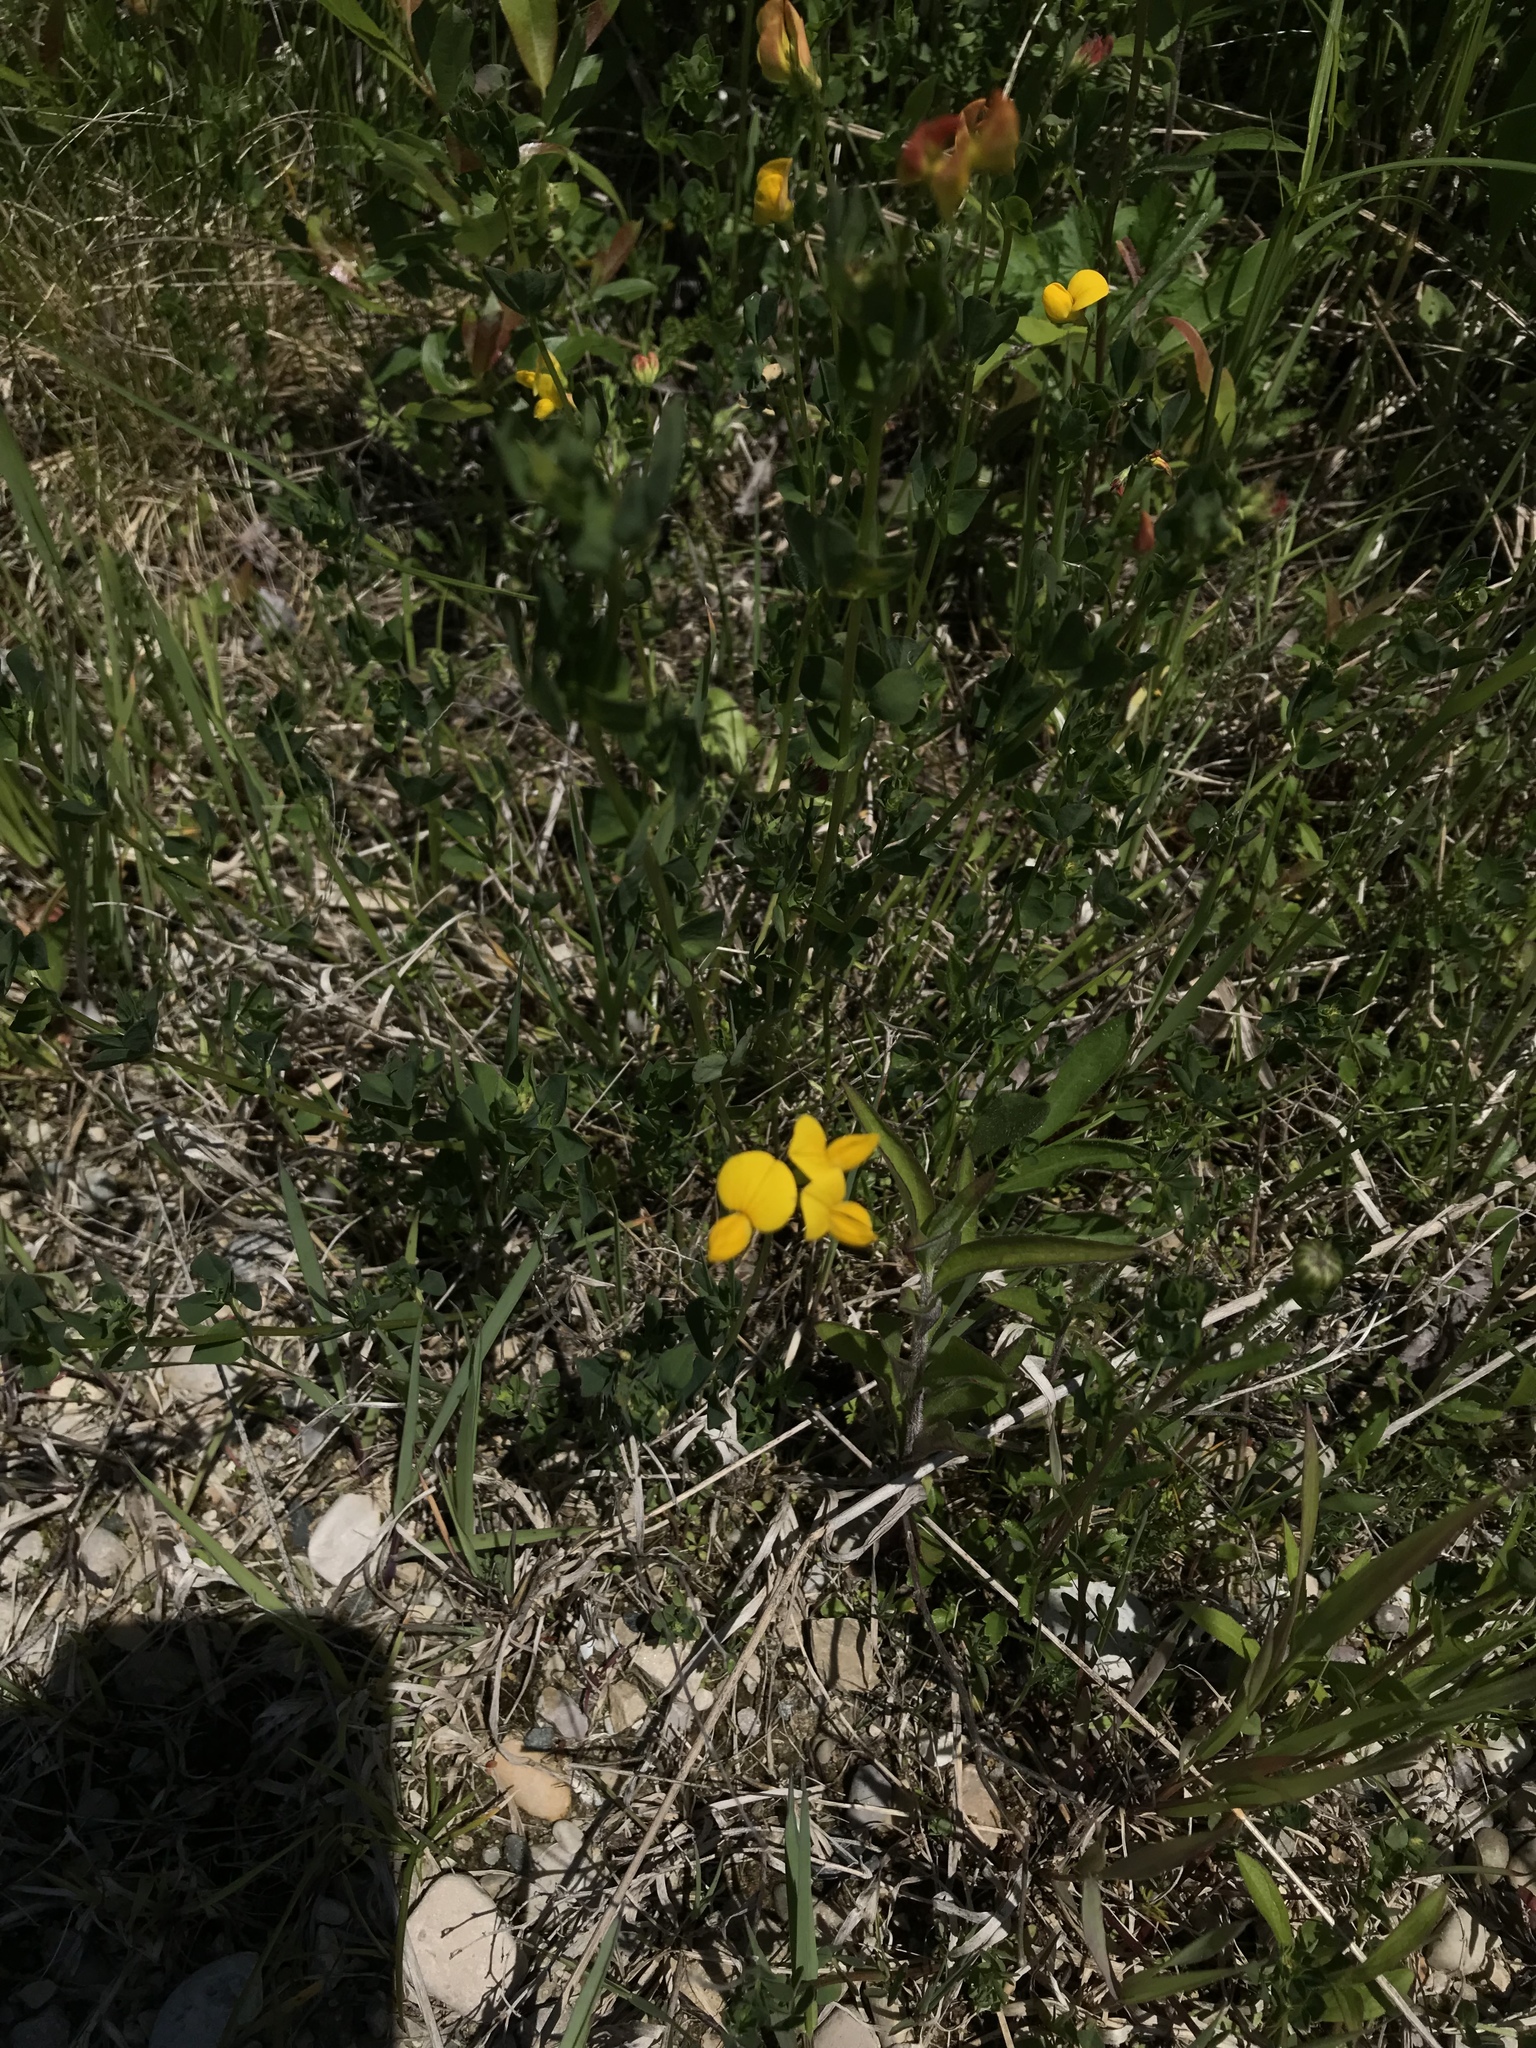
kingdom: Plantae
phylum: Tracheophyta
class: Magnoliopsida
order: Fabales
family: Fabaceae
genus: Lotus
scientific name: Lotus corniculatus
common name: Common bird's-foot-trefoil
